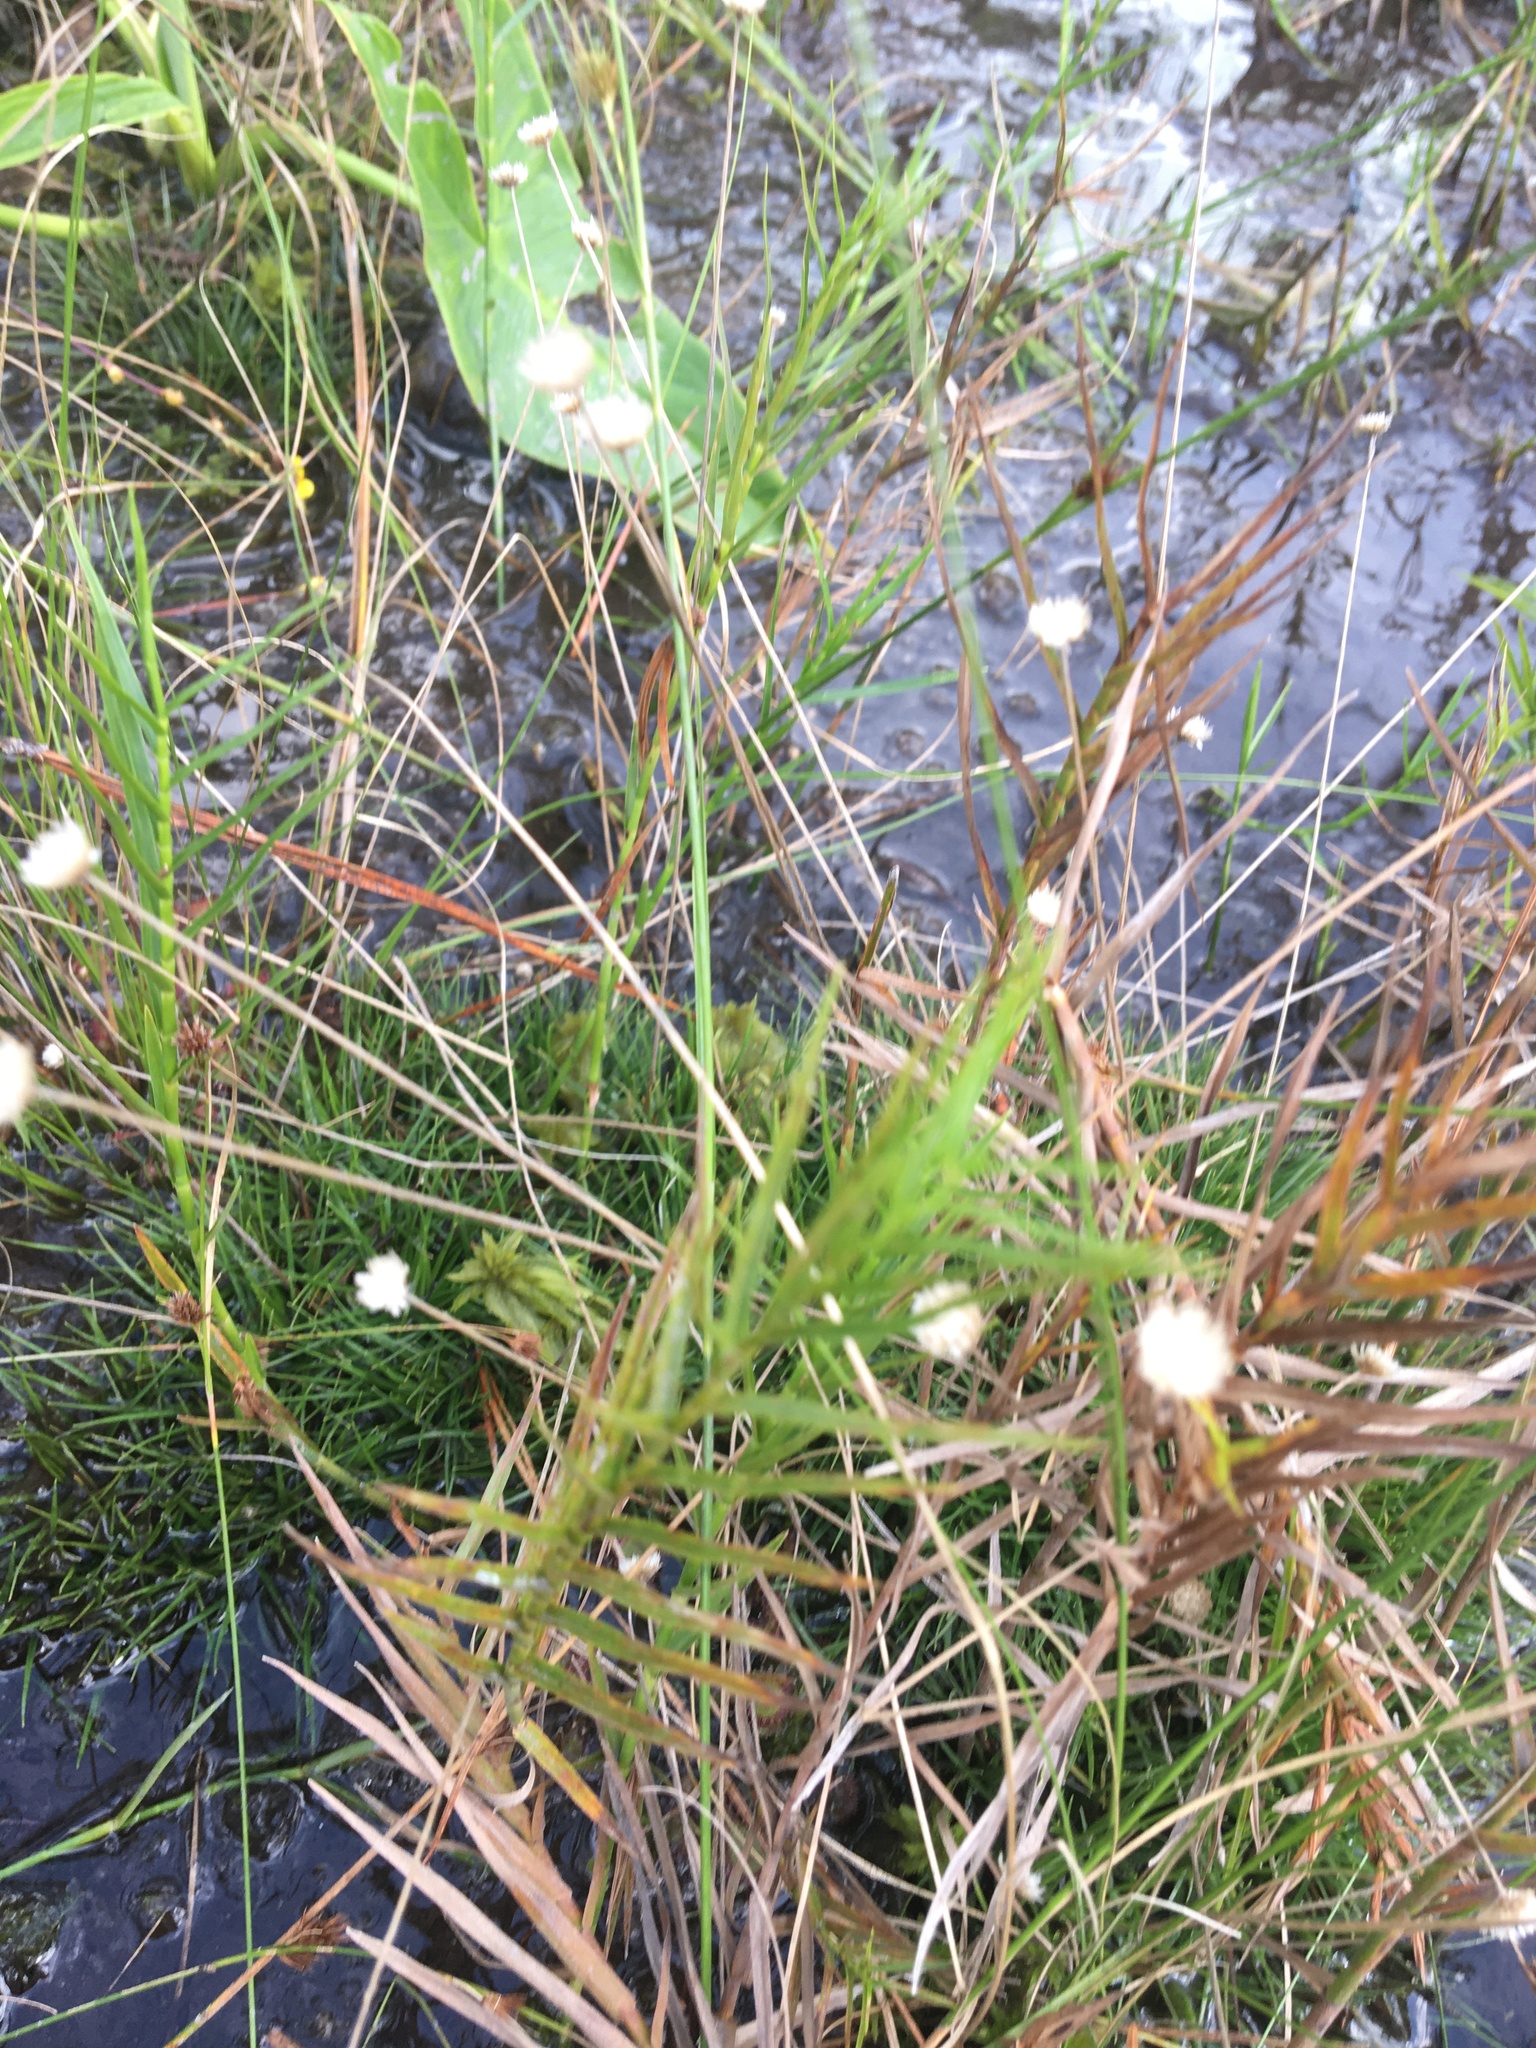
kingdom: Plantae
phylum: Tracheophyta
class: Liliopsida
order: Poales
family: Eriocaulaceae
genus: Syngonanthus
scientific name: Syngonanthus flavidulus
